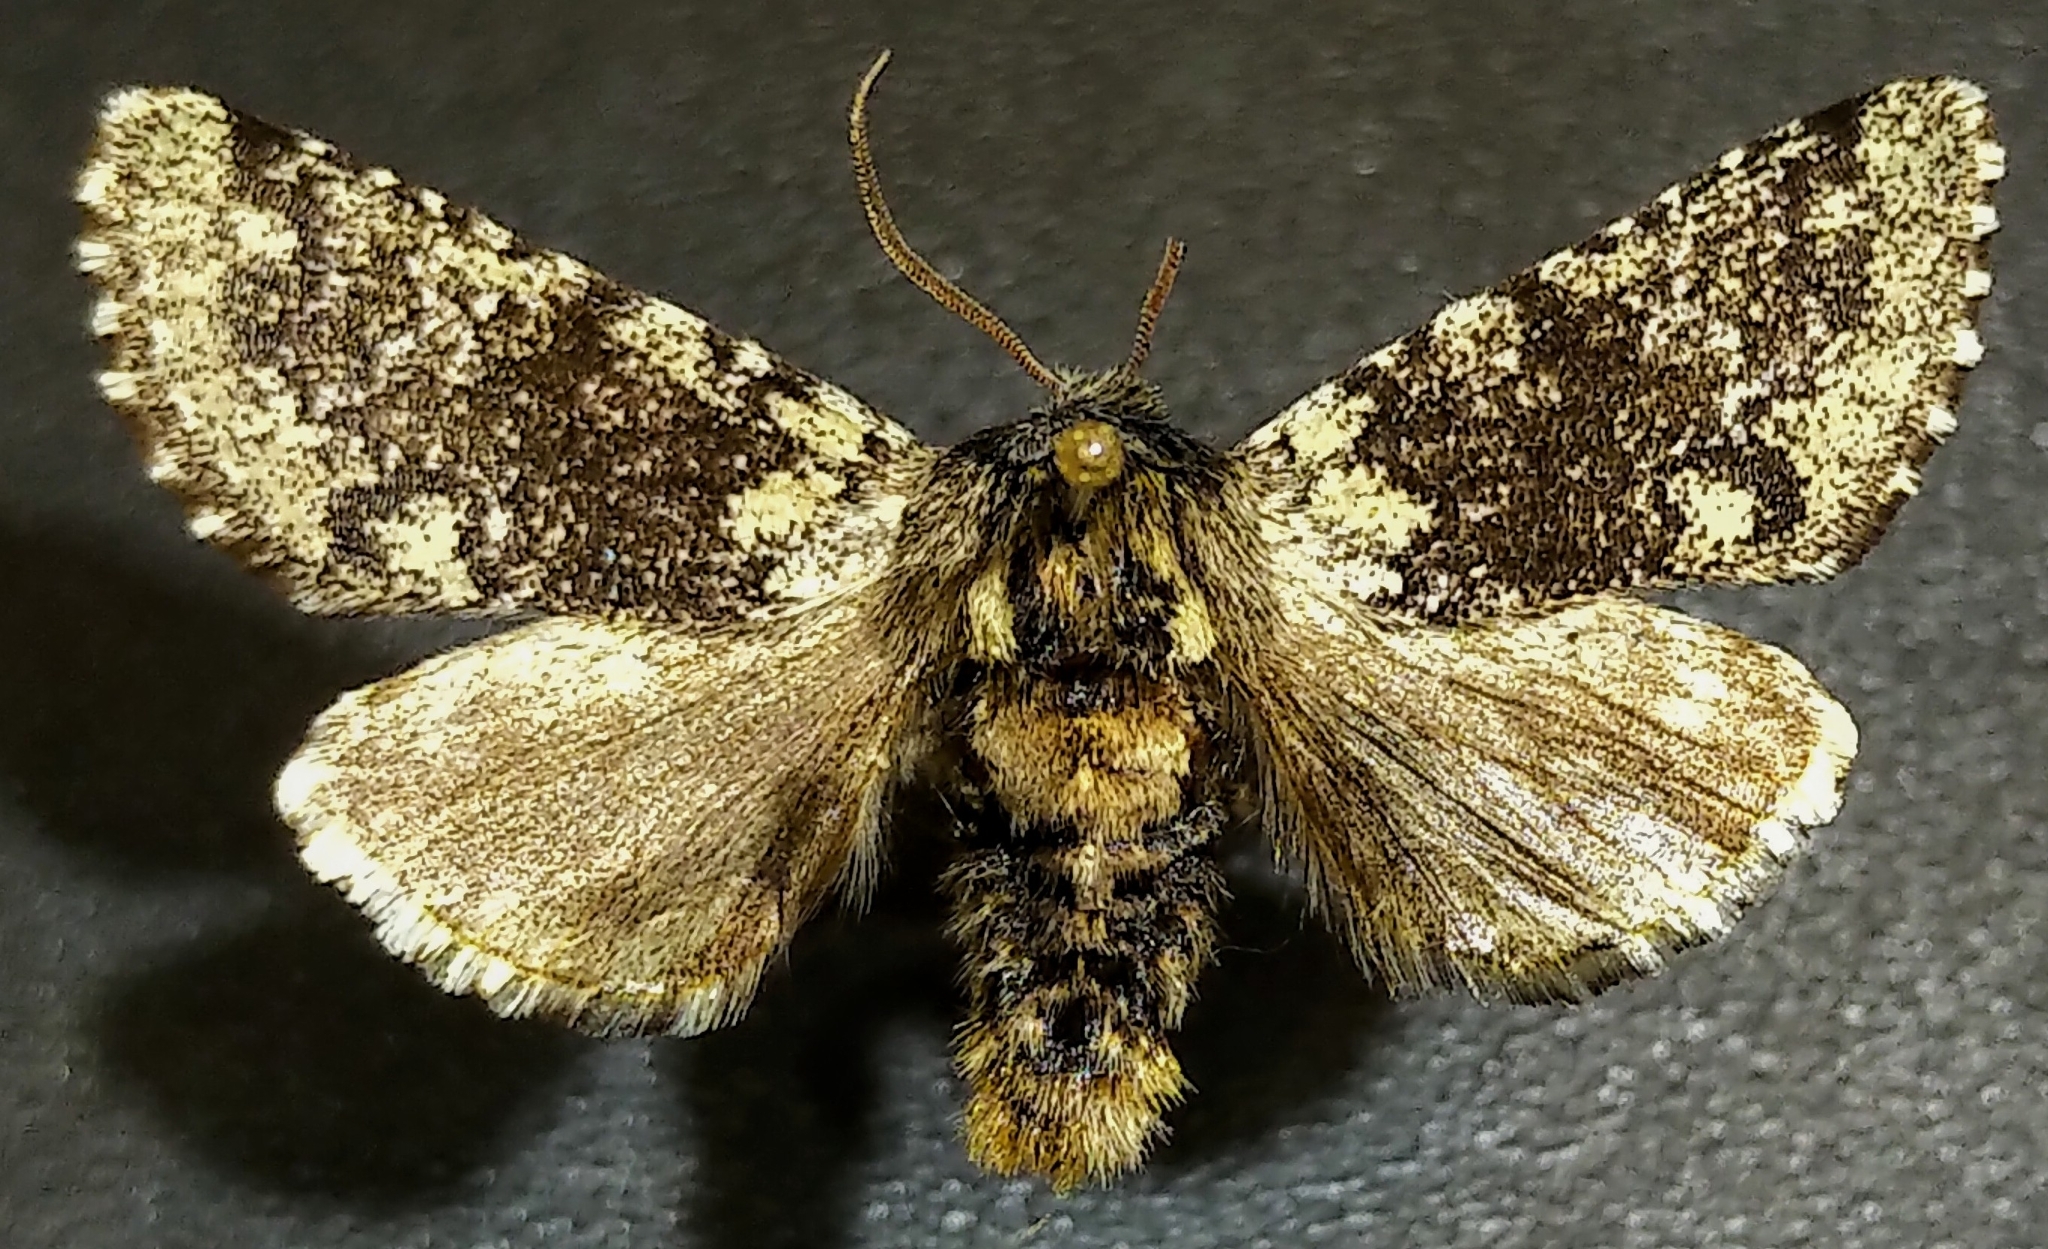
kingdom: Animalia
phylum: Arthropoda
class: Insecta
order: Lepidoptera
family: Noctuidae
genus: Feralia
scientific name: Feralia major
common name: Major sallow
